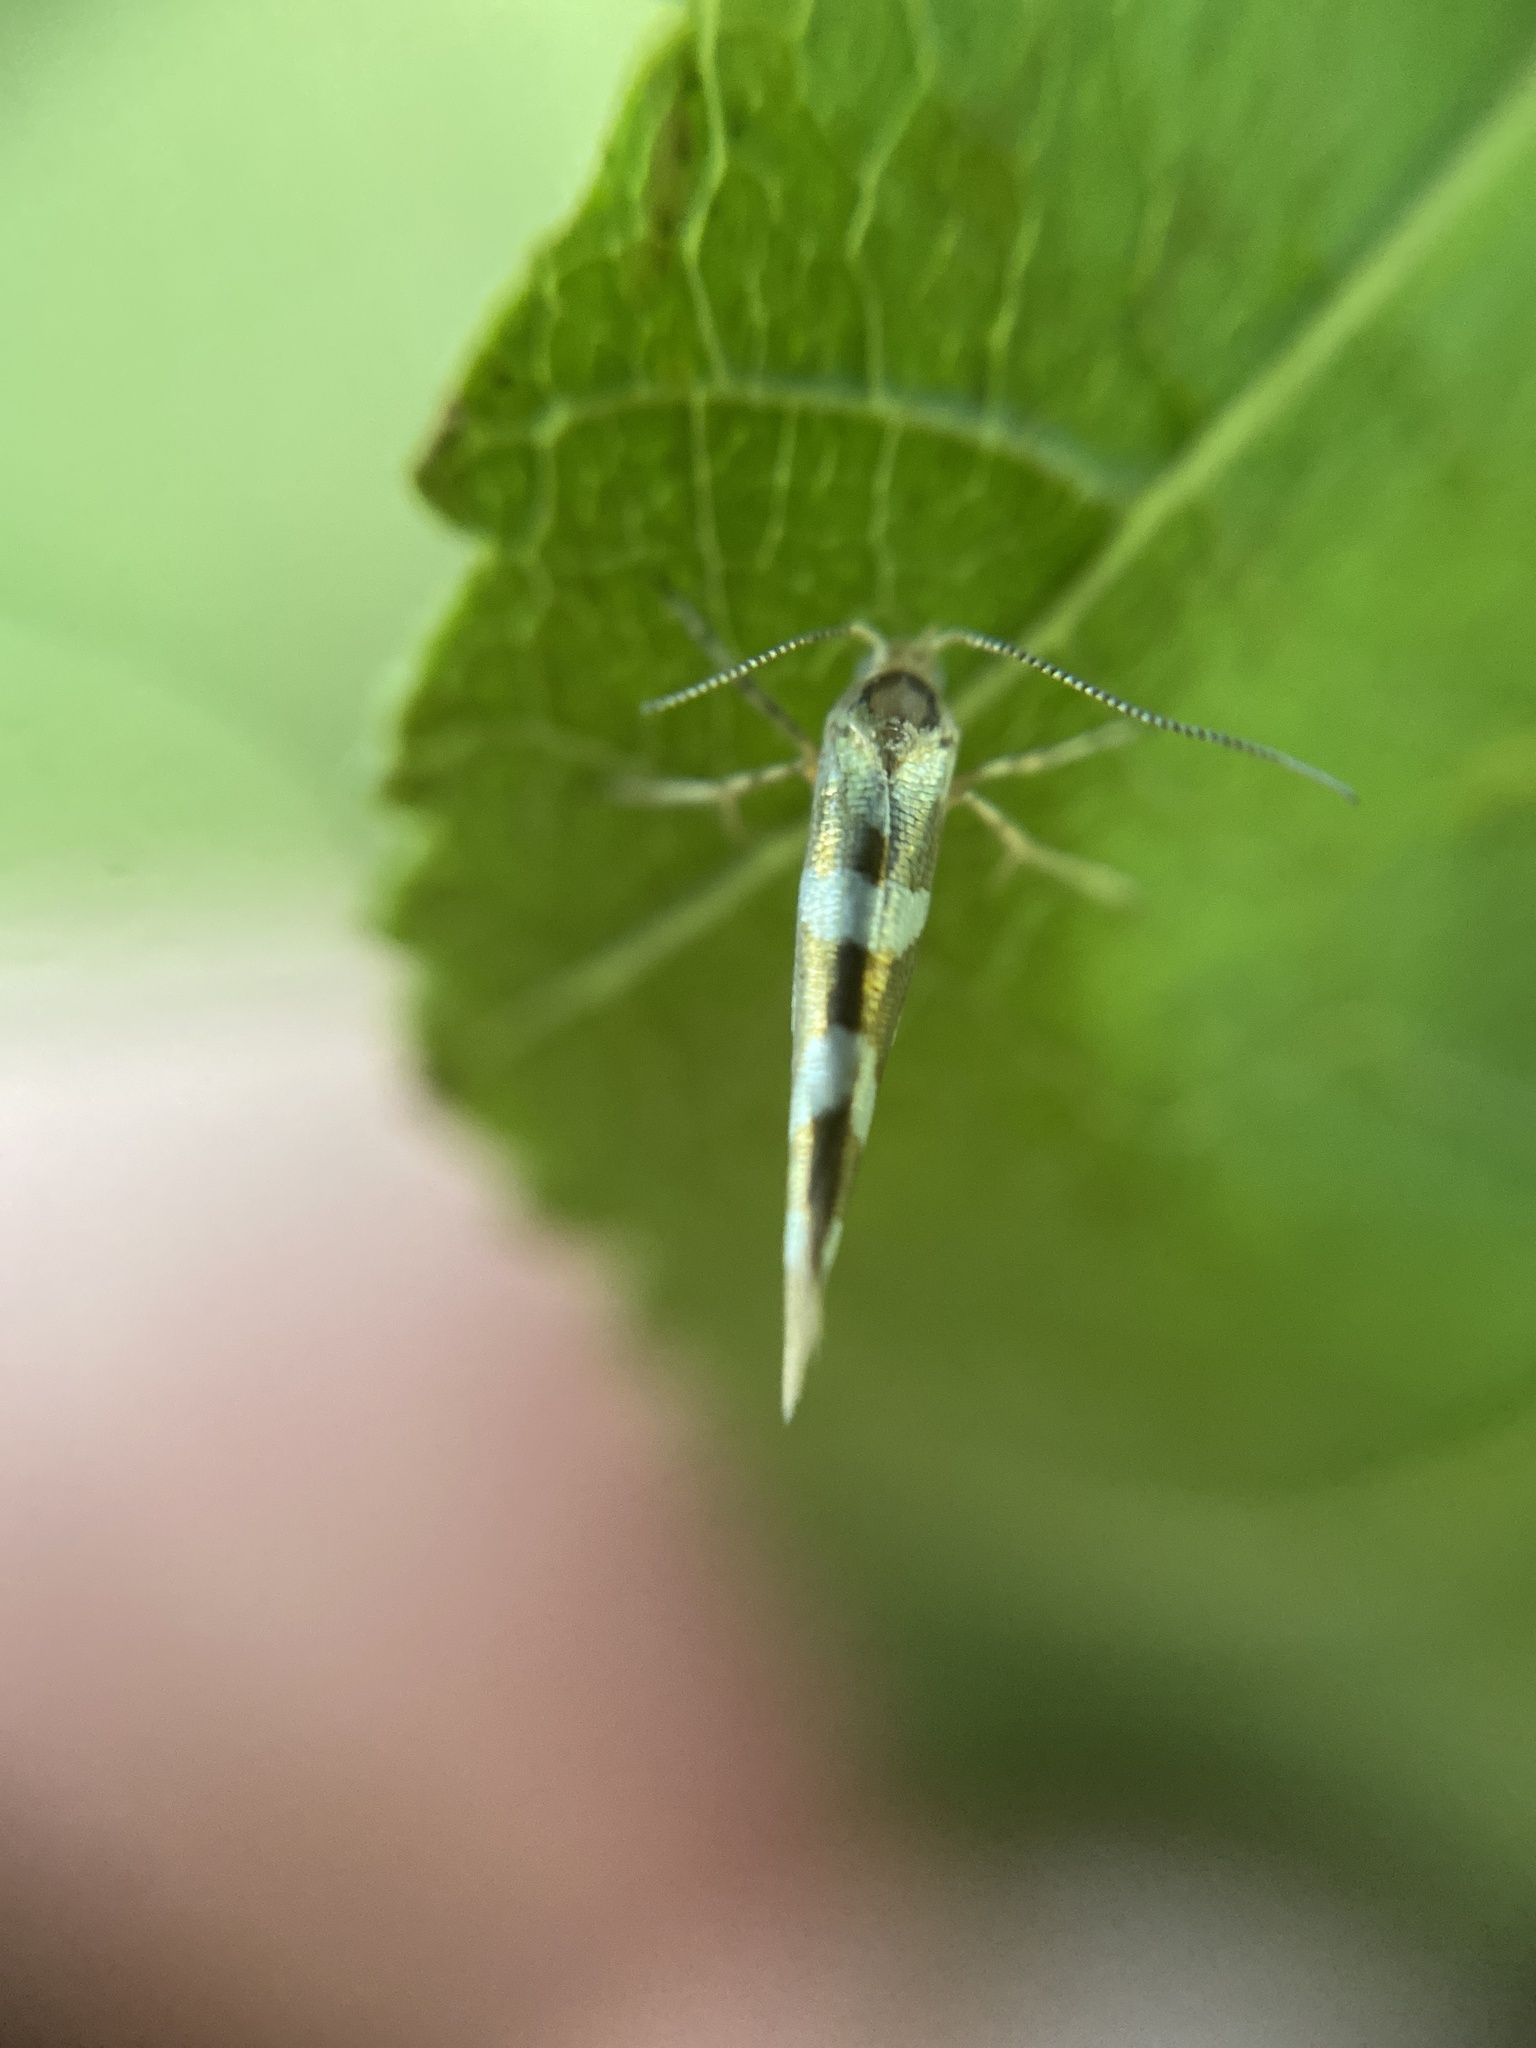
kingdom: Animalia
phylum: Arthropoda
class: Insecta
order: Lepidoptera
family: Argyresthiidae
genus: Argyresthia
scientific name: Argyresthia goedartella
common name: Golden argent
